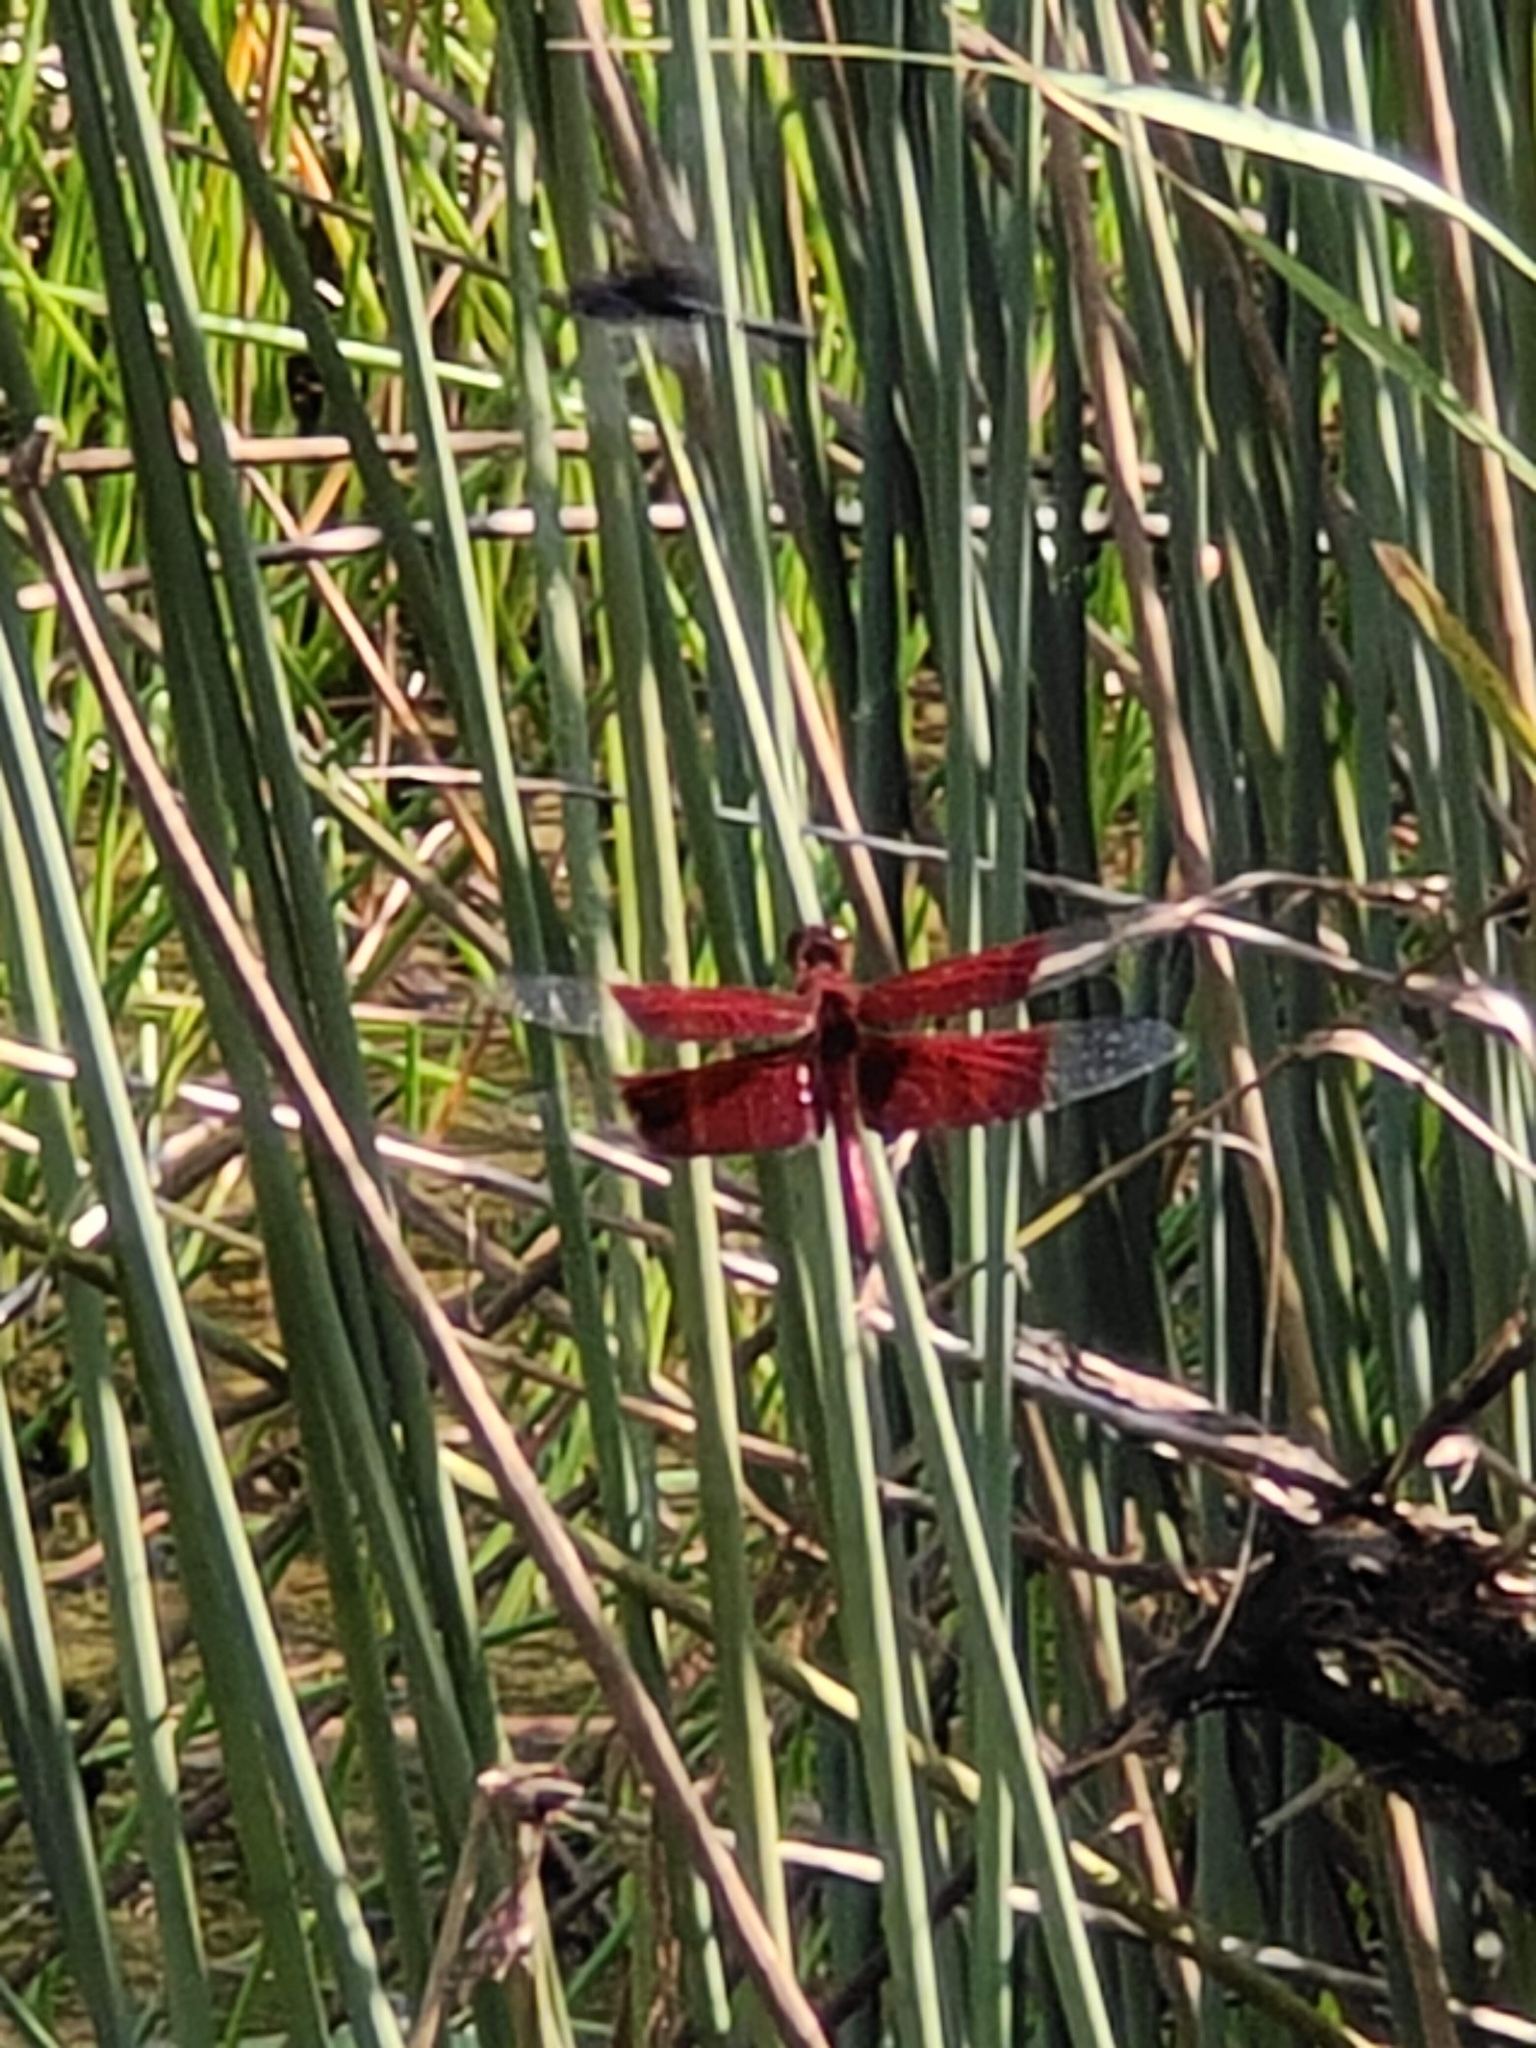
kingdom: Animalia
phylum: Arthropoda
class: Insecta
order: Odonata
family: Libellulidae
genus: Camacinia
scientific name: Camacinia gigantea
